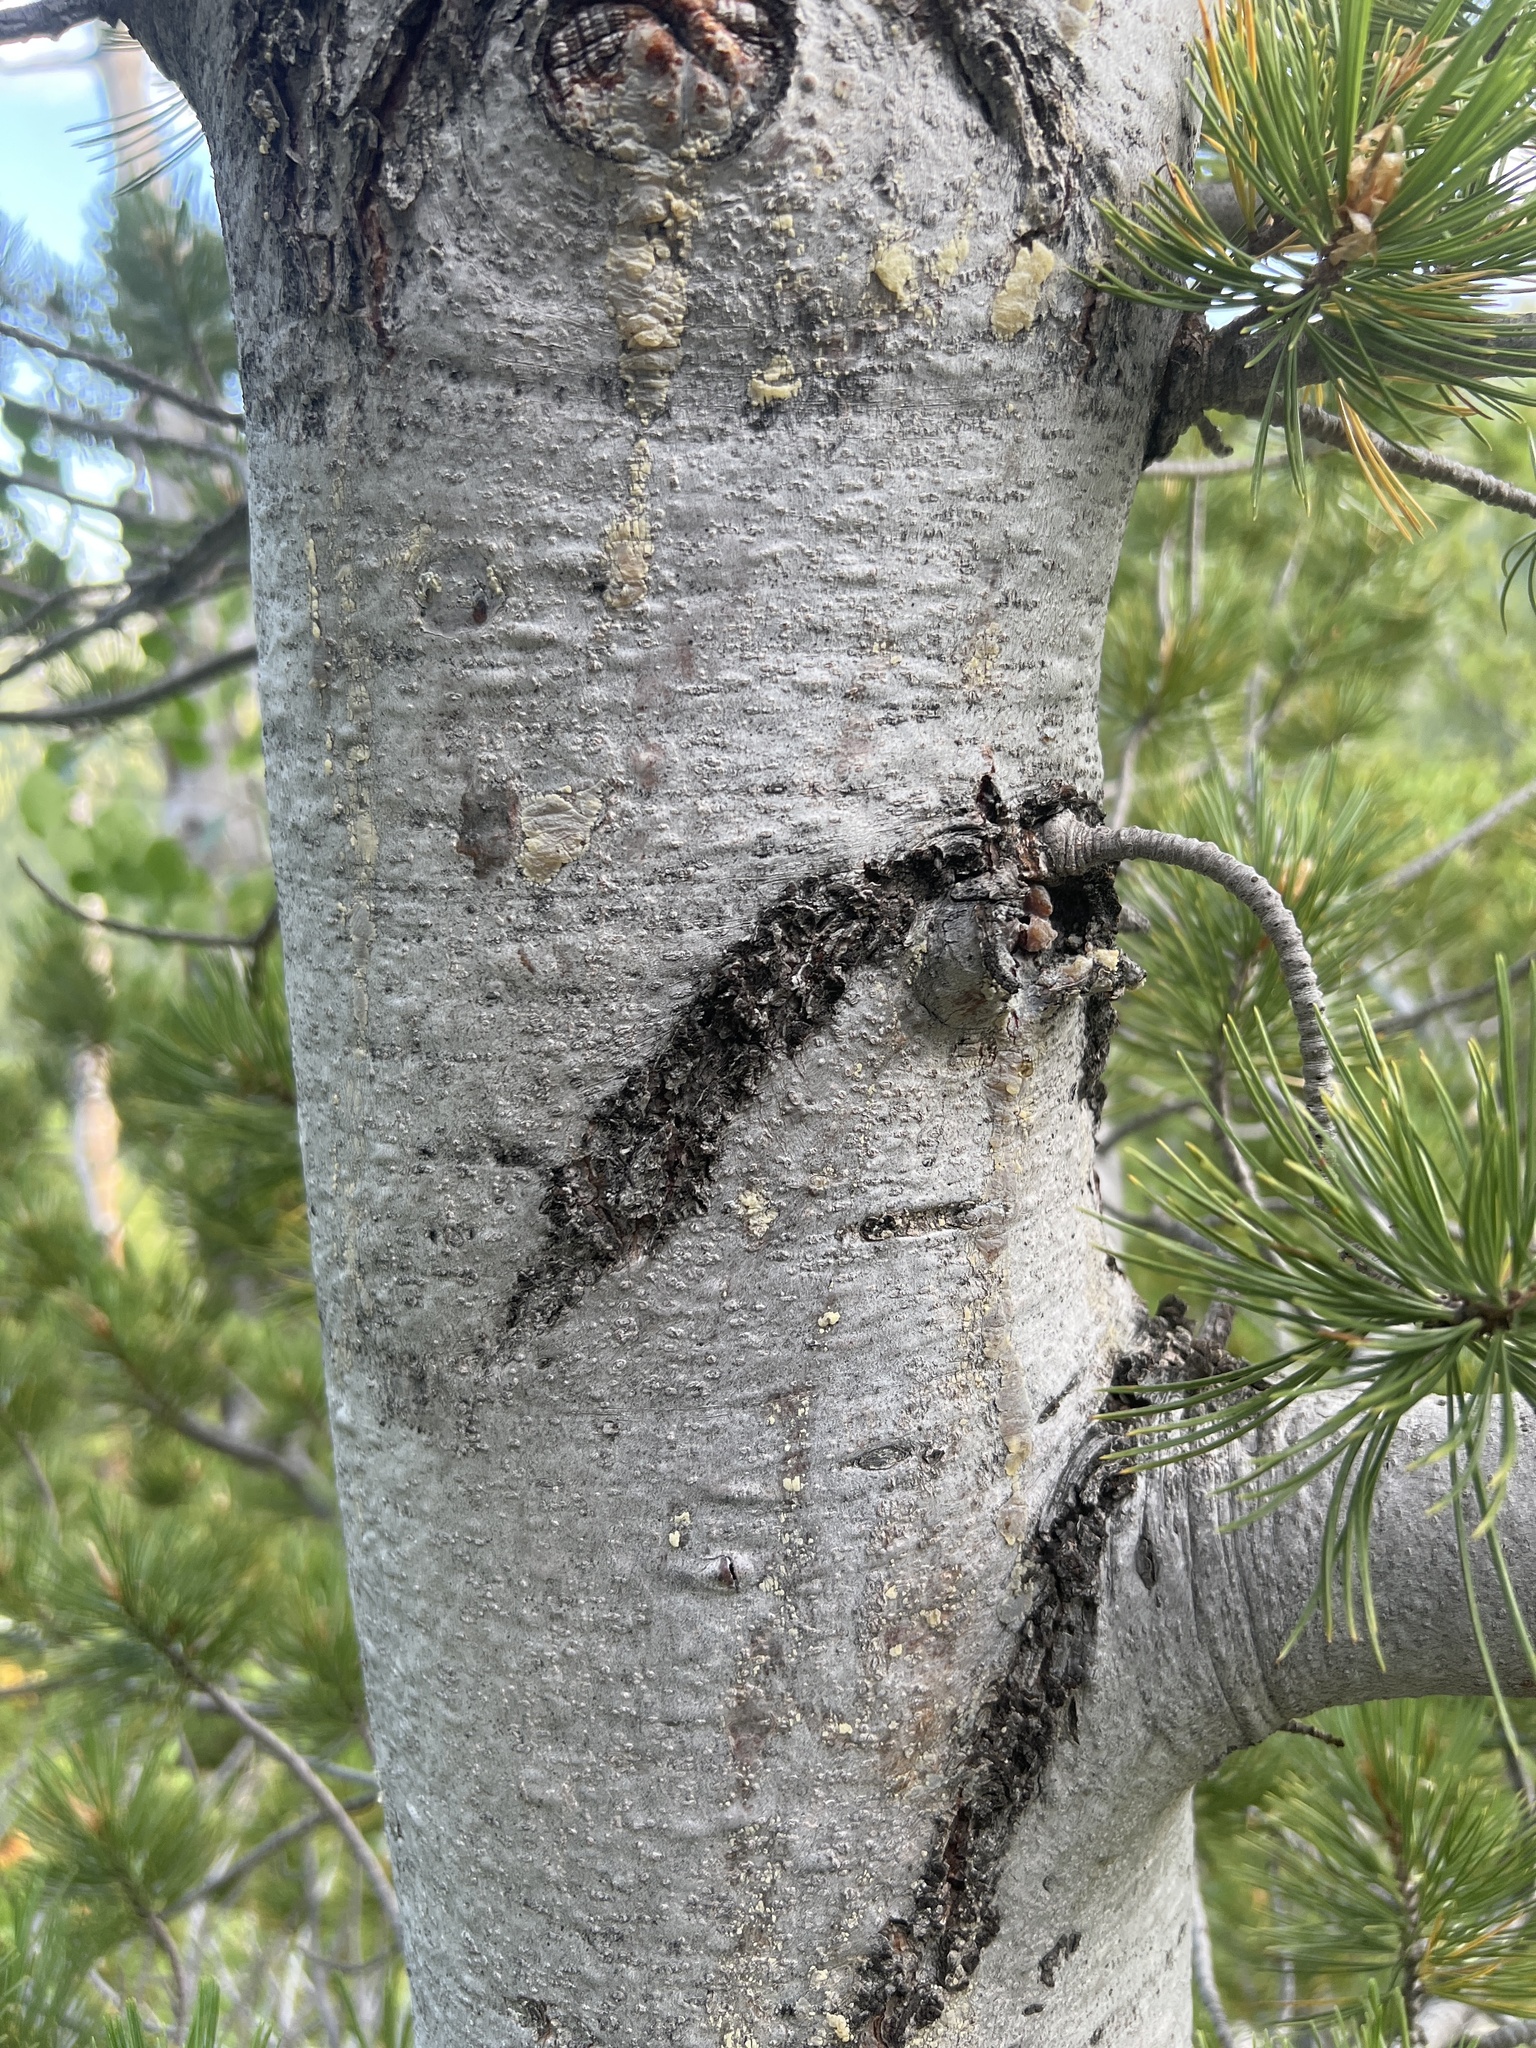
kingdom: Plantae
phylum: Tracheophyta
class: Pinopsida
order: Pinales
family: Pinaceae
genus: Pinus
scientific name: Pinus flexilis
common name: Limber pine
